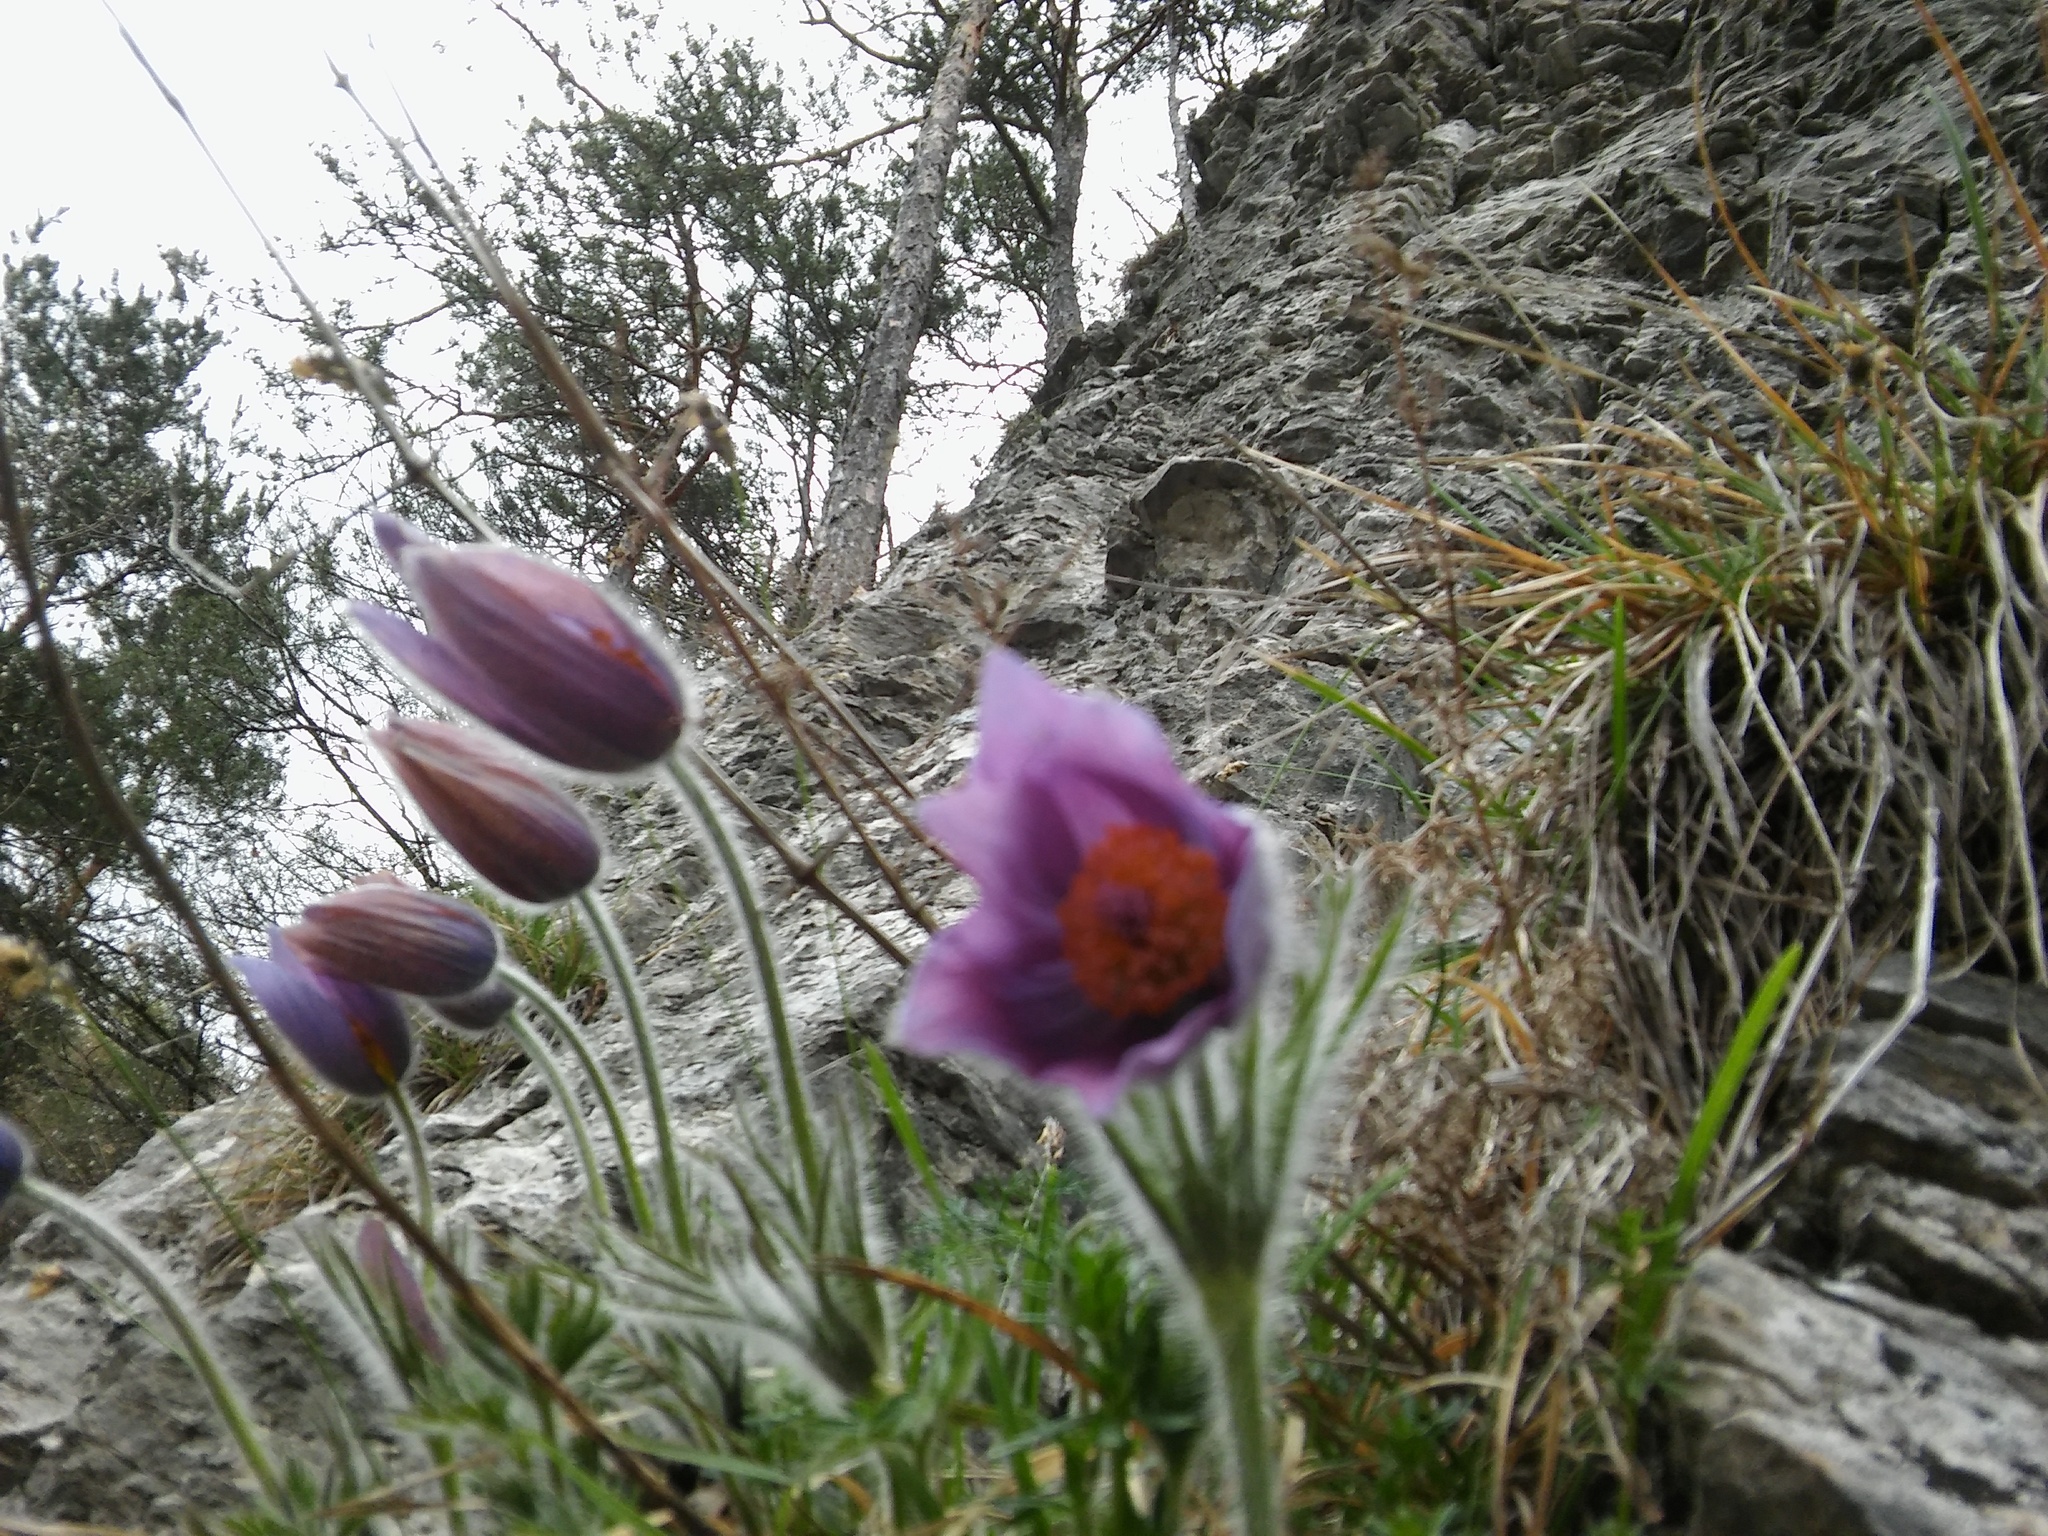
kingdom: Plantae
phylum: Tracheophyta
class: Magnoliopsida
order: Ranunculales
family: Ranunculaceae
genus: Pulsatilla
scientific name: Pulsatilla halleri
